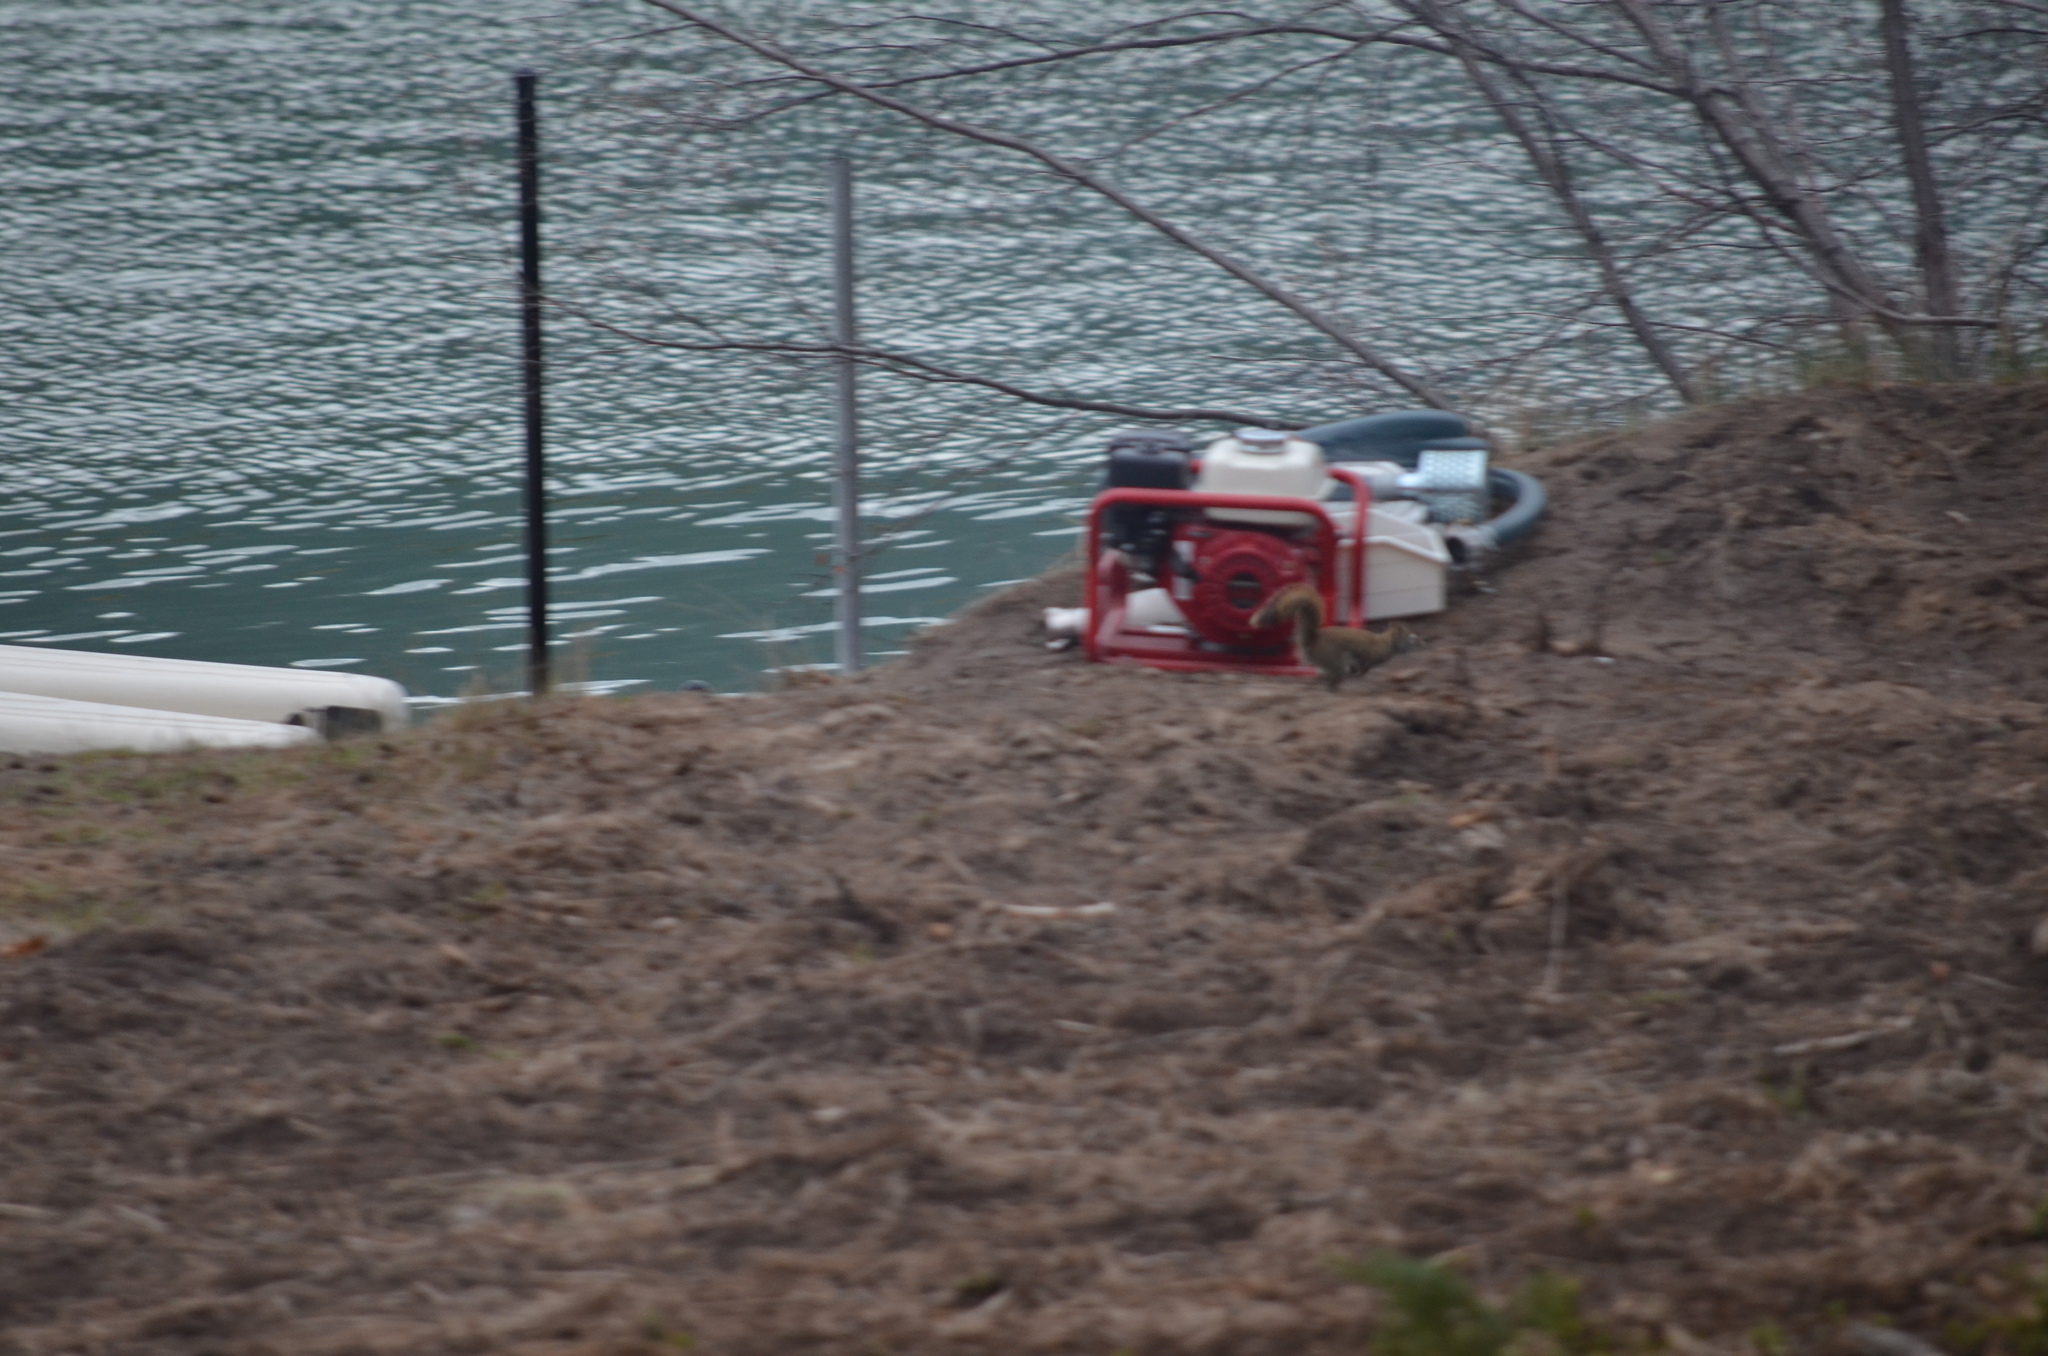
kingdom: Animalia
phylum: Chordata
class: Mammalia
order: Rodentia
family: Sciuridae
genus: Tamiasciurus
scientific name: Tamiasciurus hudsonicus
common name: Red squirrel
